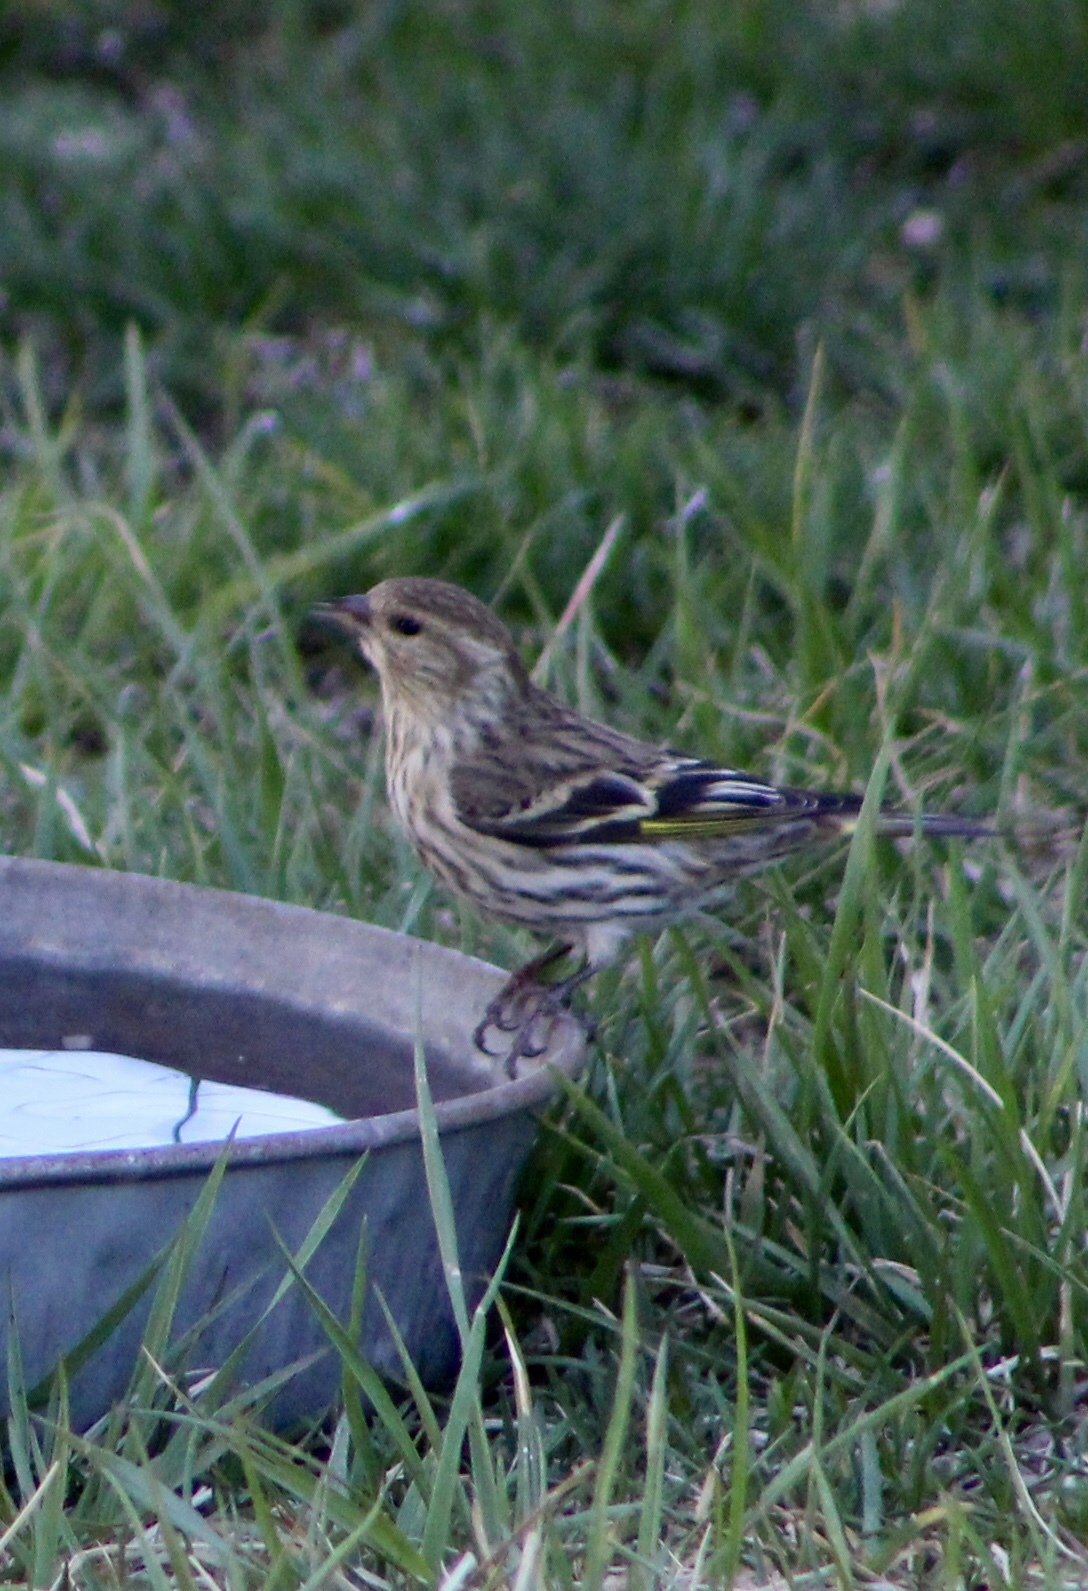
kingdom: Animalia
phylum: Chordata
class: Aves
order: Passeriformes
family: Fringillidae
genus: Spinus
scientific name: Spinus pinus
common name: Pine siskin
